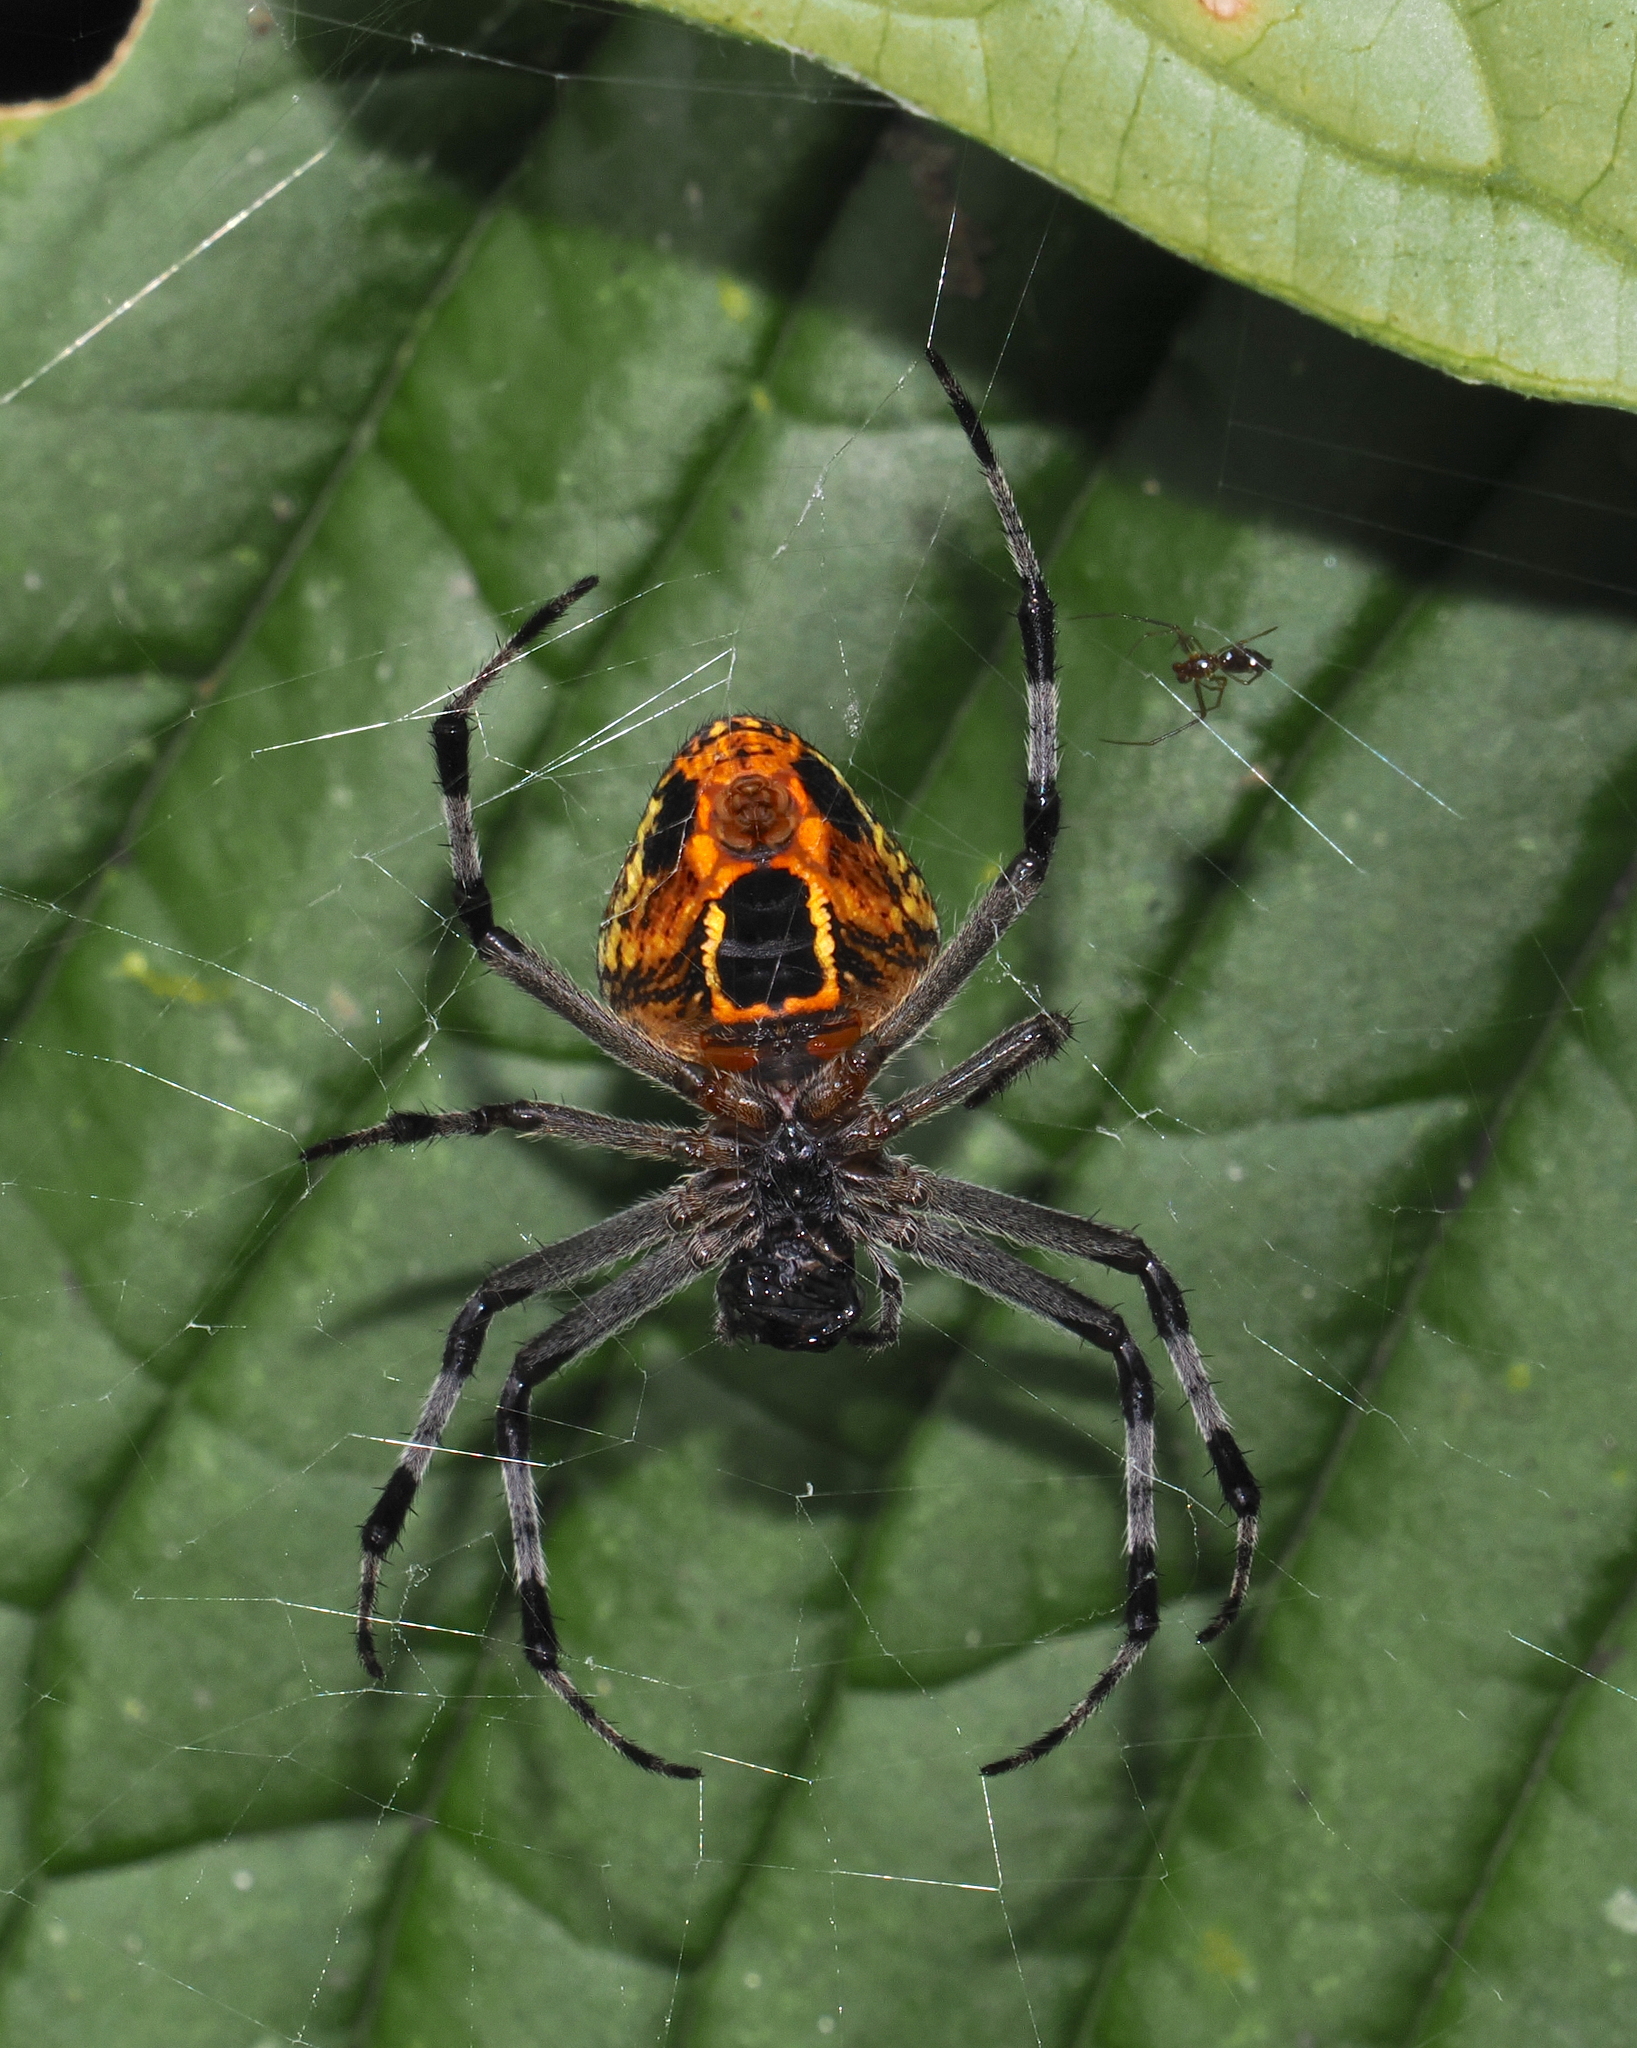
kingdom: Animalia
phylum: Arthropoda
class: Arachnida
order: Araneae
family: Araneidae
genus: Eriophora
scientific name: Eriophora nephiloides
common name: Orb weavers
